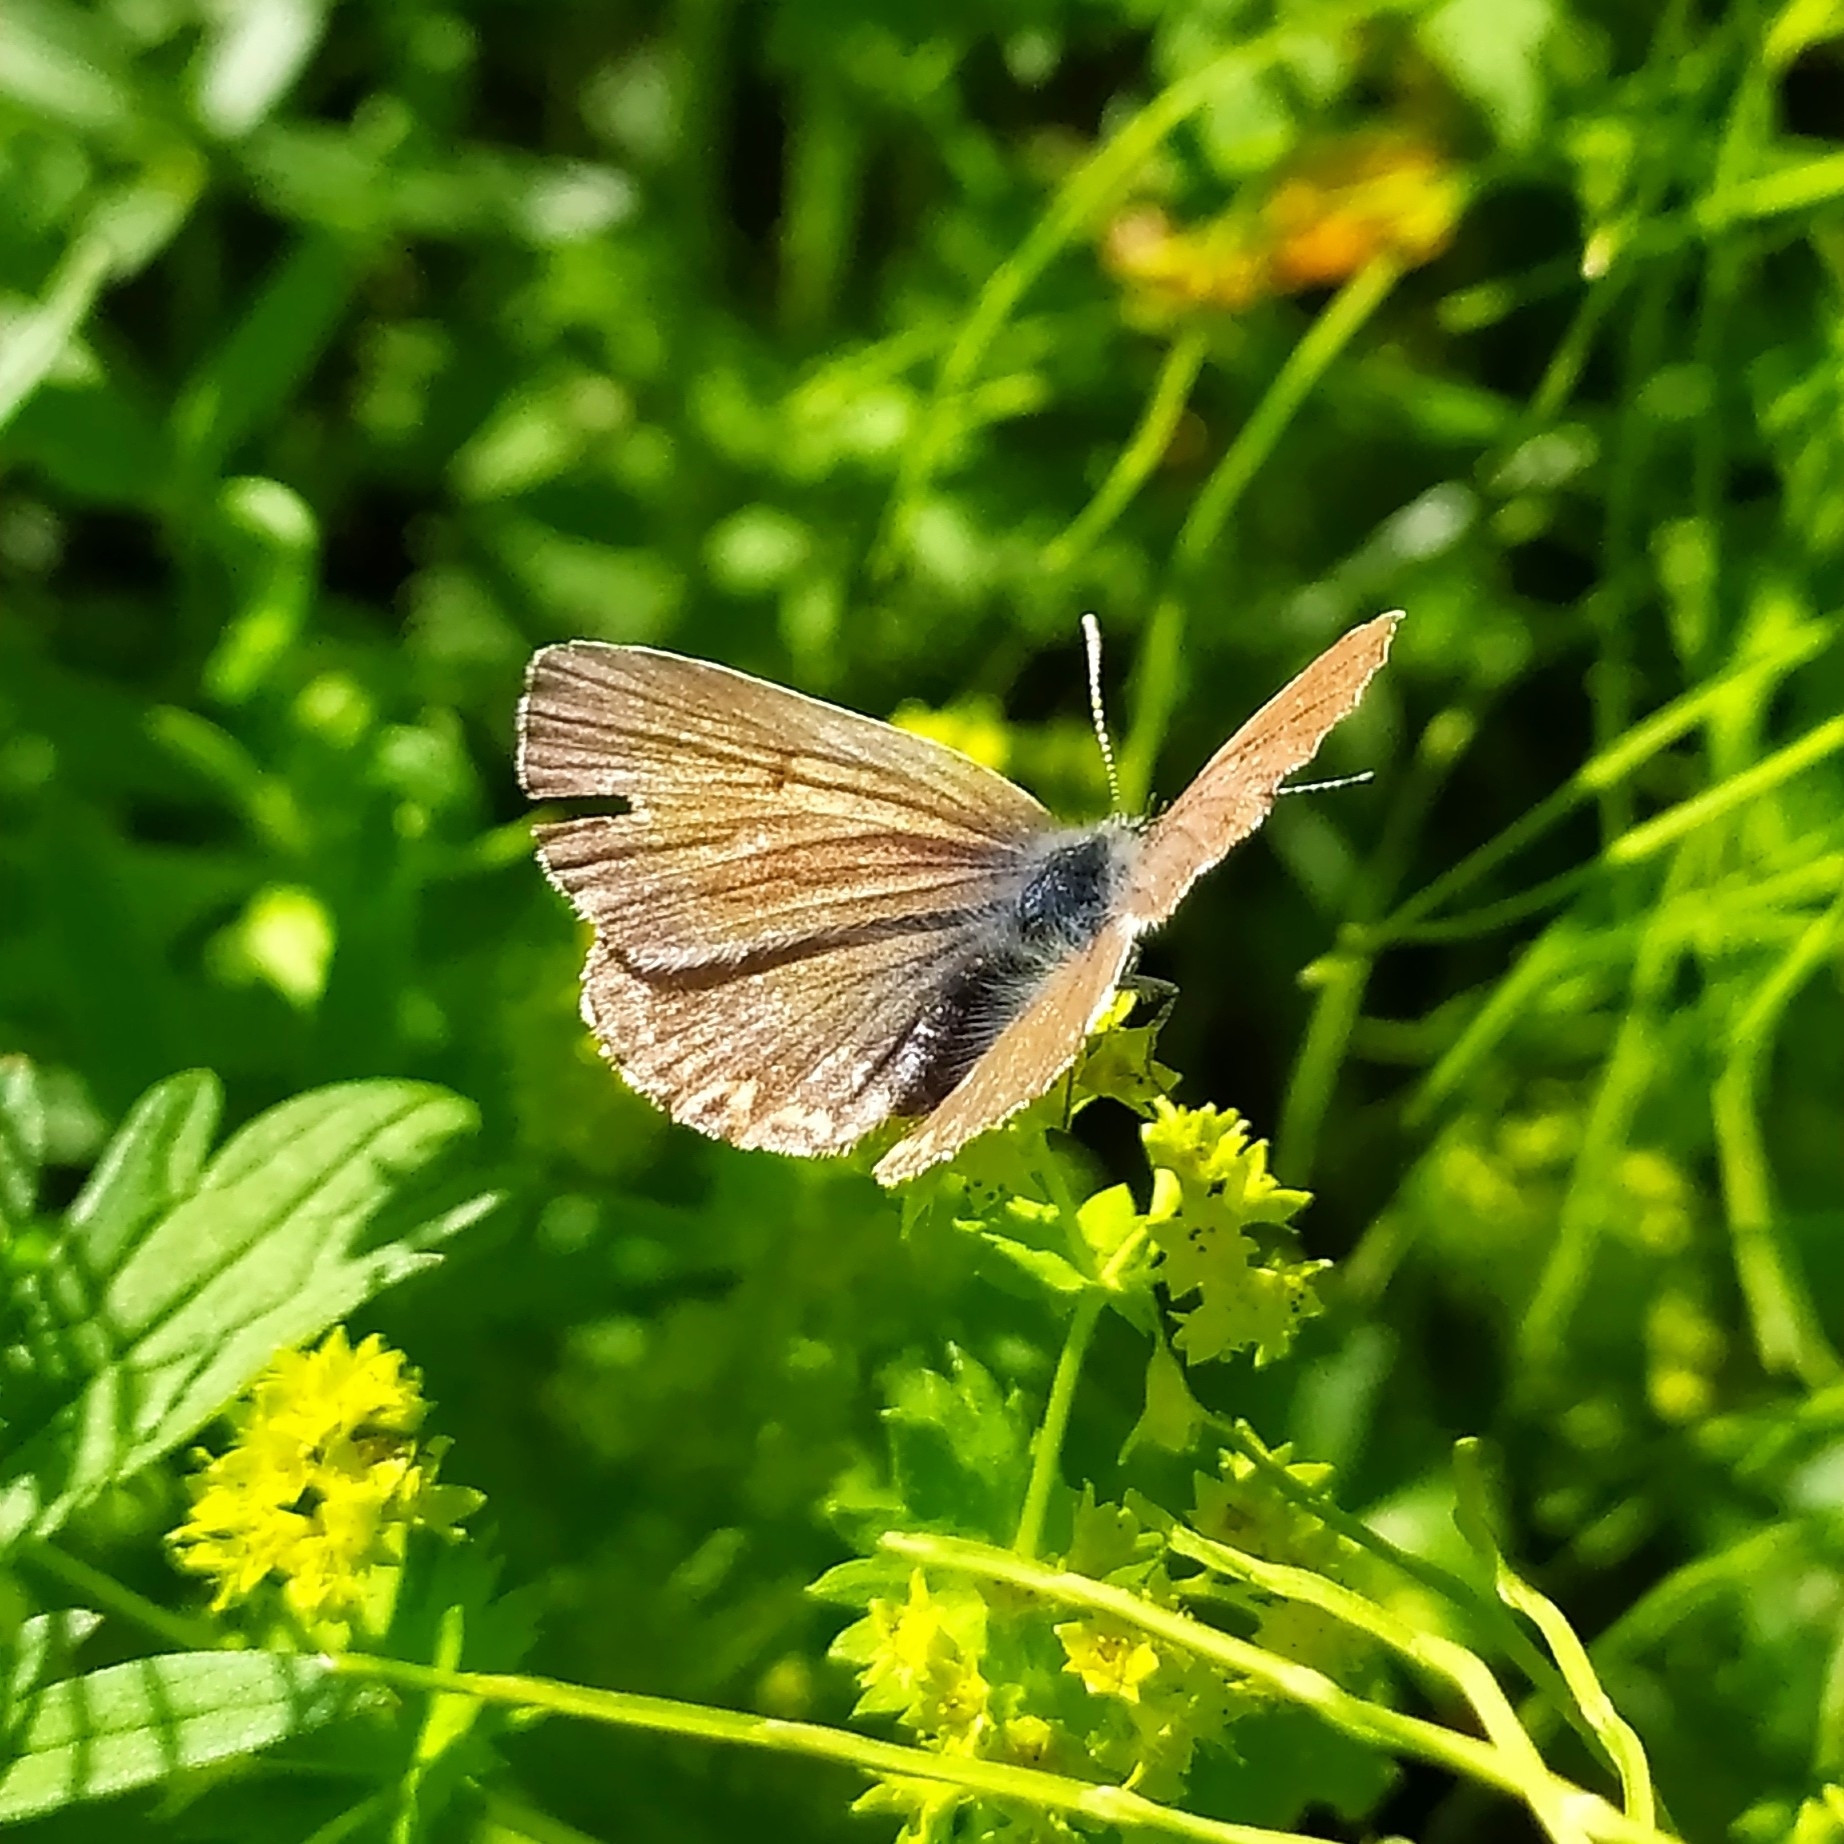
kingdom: Animalia
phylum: Arthropoda
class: Insecta
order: Lepidoptera
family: Lycaenidae
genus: Eumedonia
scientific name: Eumedonia eumedon
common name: Geranium argus
